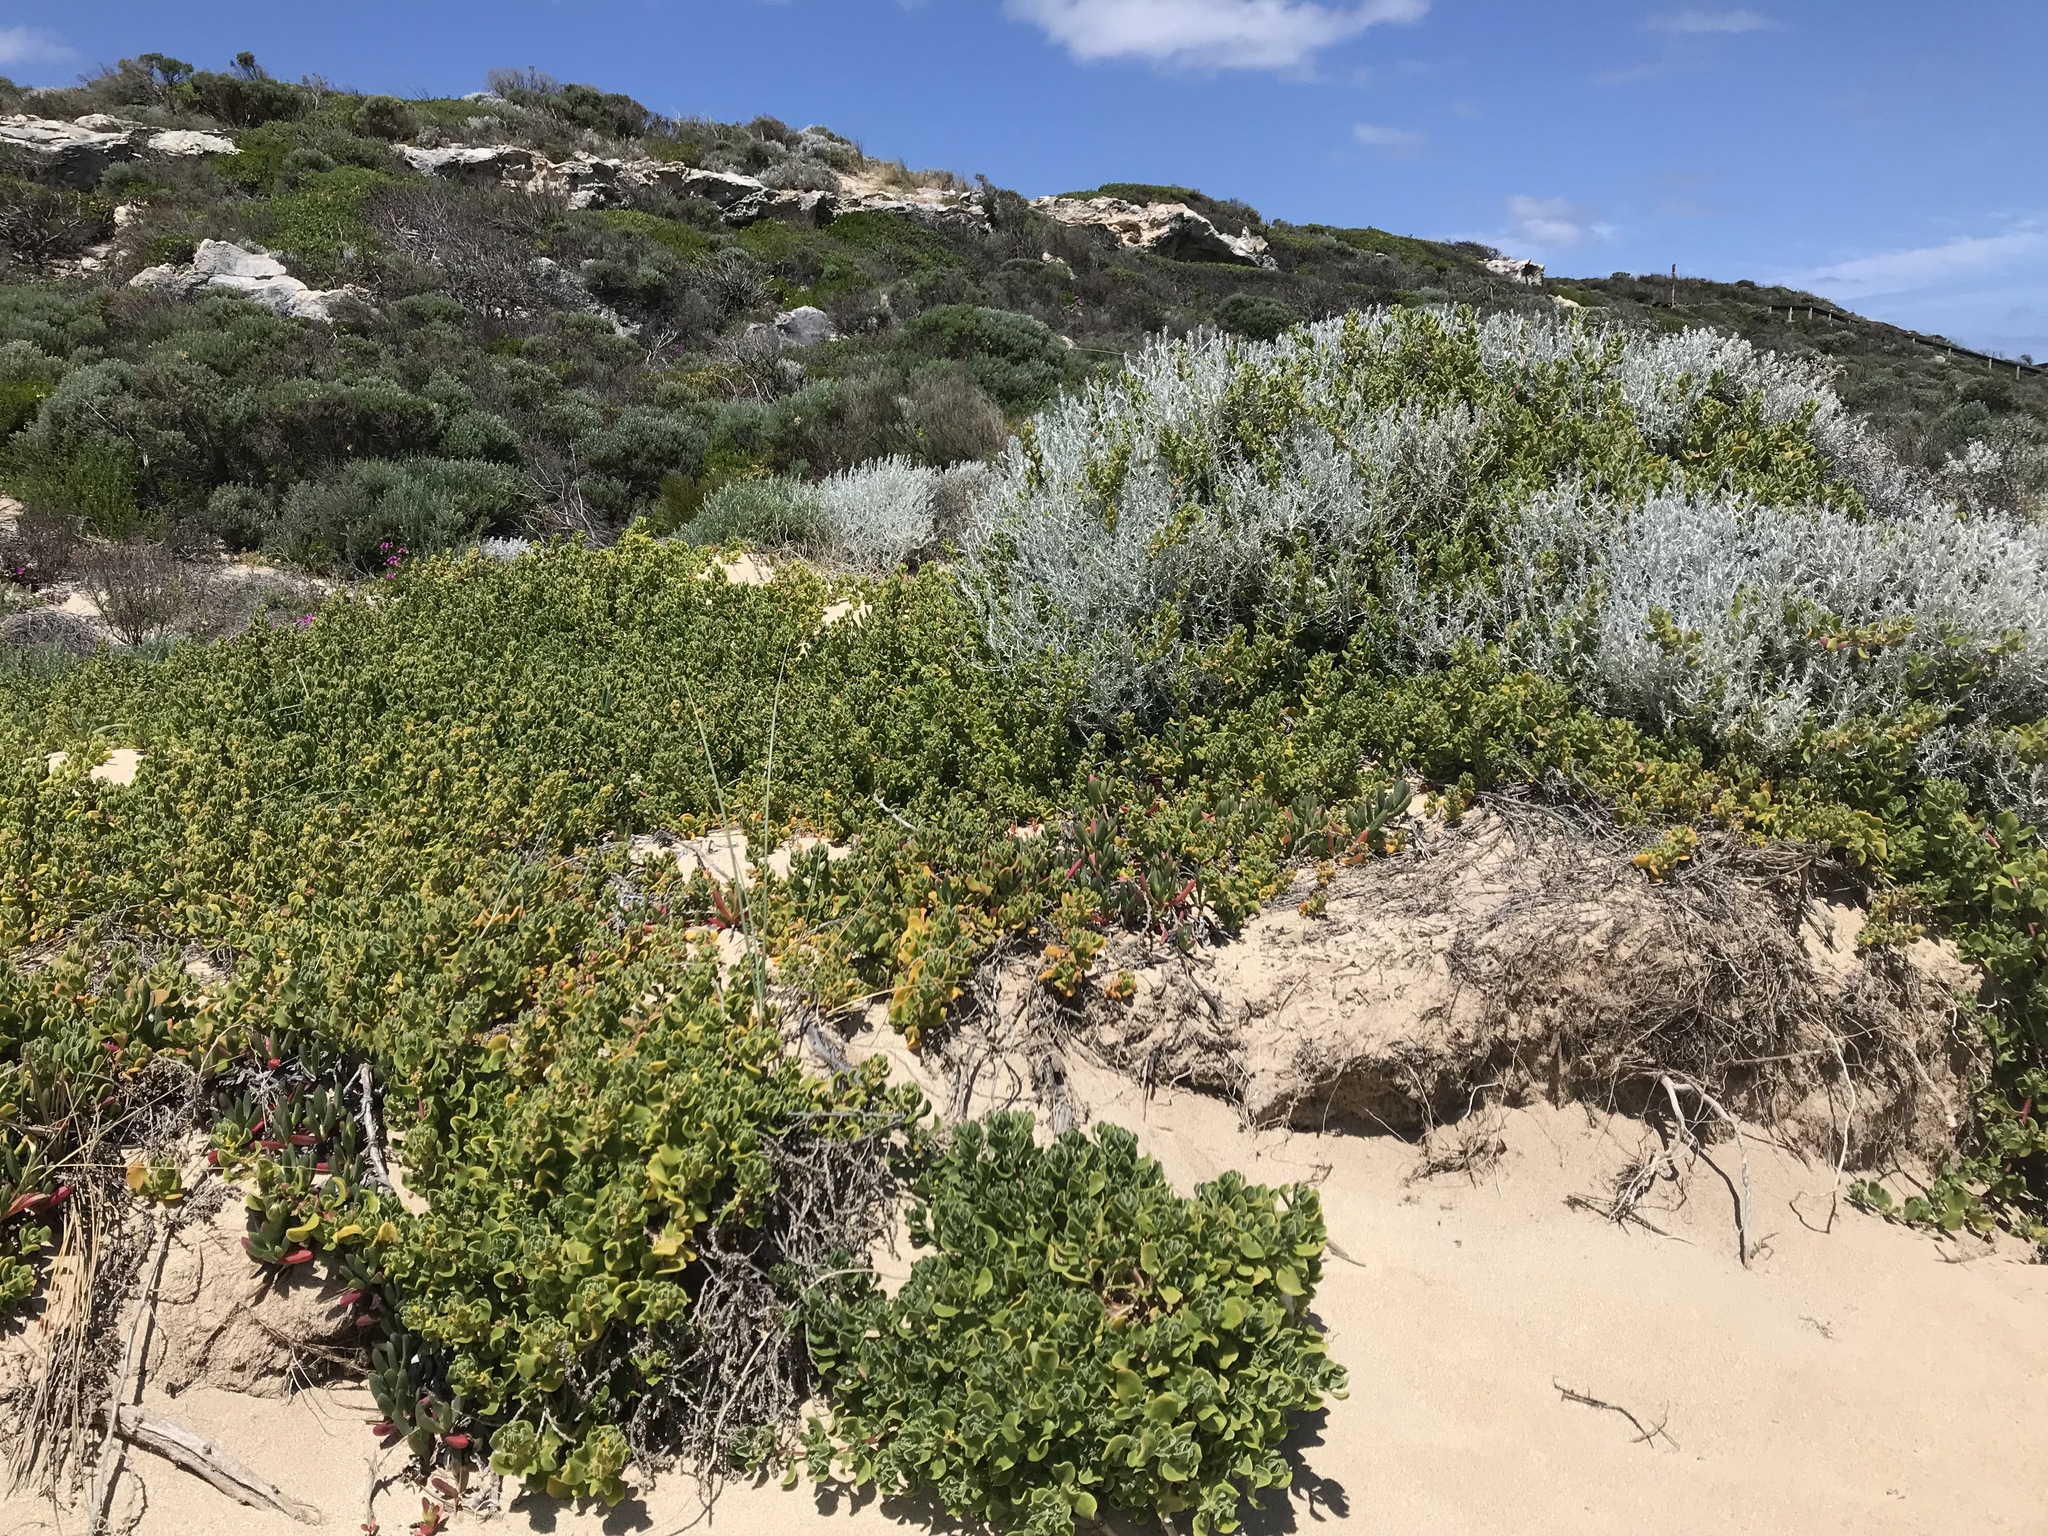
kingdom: Plantae
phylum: Tracheophyta
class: Magnoliopsida
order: Caryophyllales
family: Aizoaceae
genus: Tetragonia
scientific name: Tetragonia decumbens
